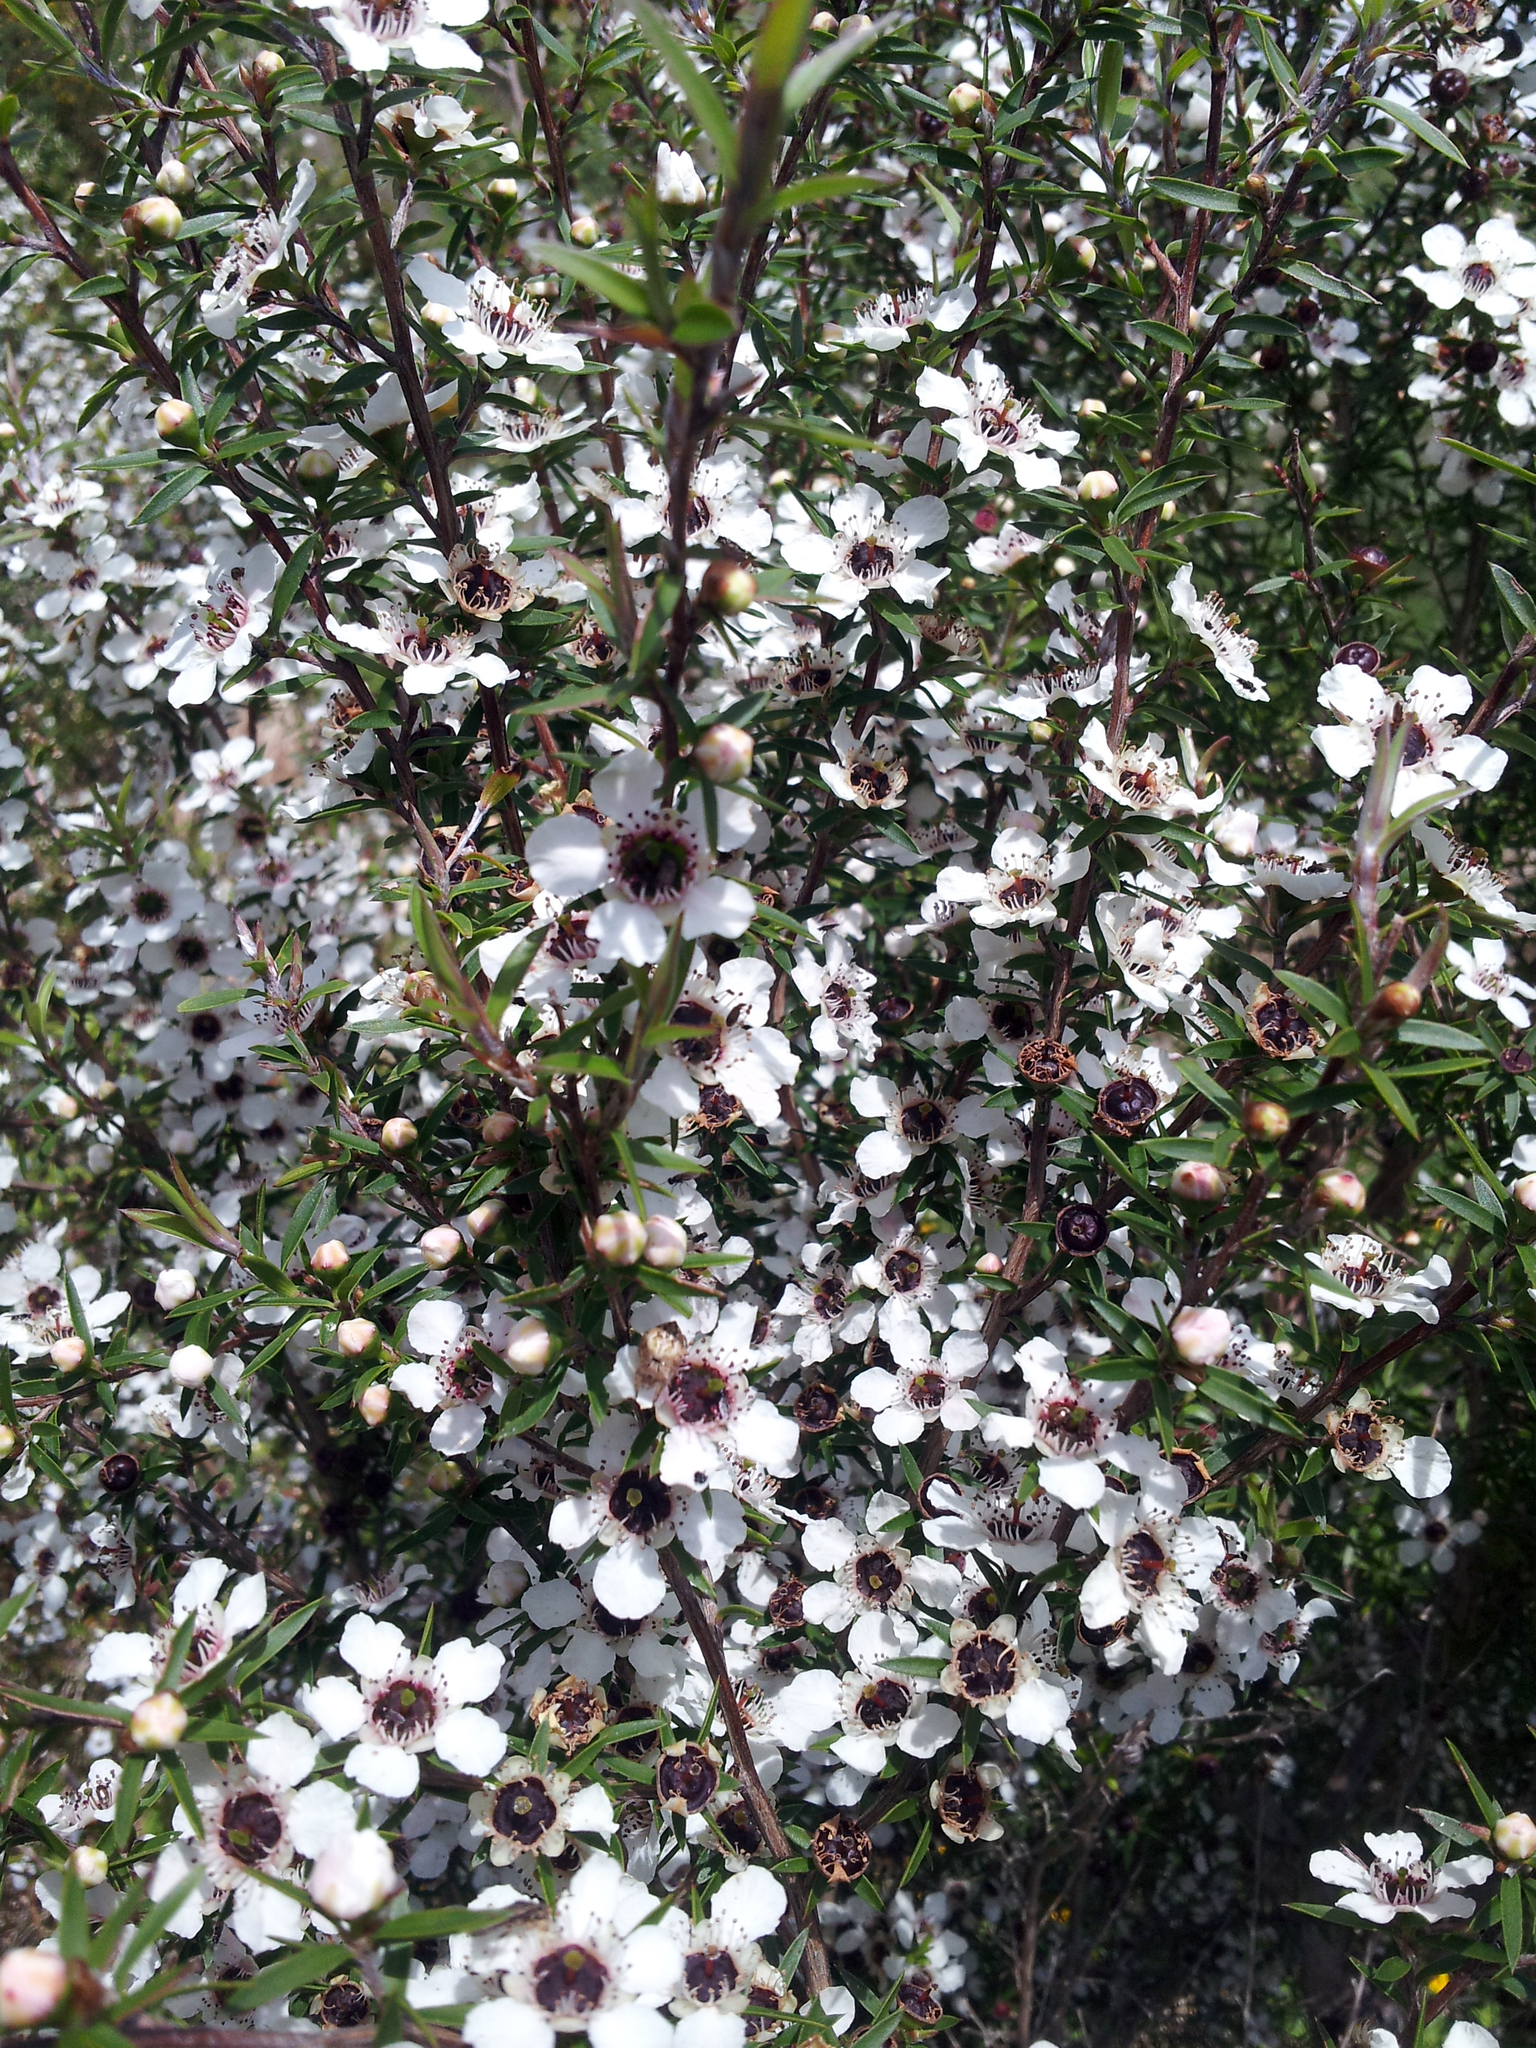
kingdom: Plantae
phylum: Tracheophyta
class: Magnoliopsida
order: Myrtales
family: Myrtaceae
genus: Leptospermum
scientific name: Leptospermum scoparium
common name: Broom tea-tree
